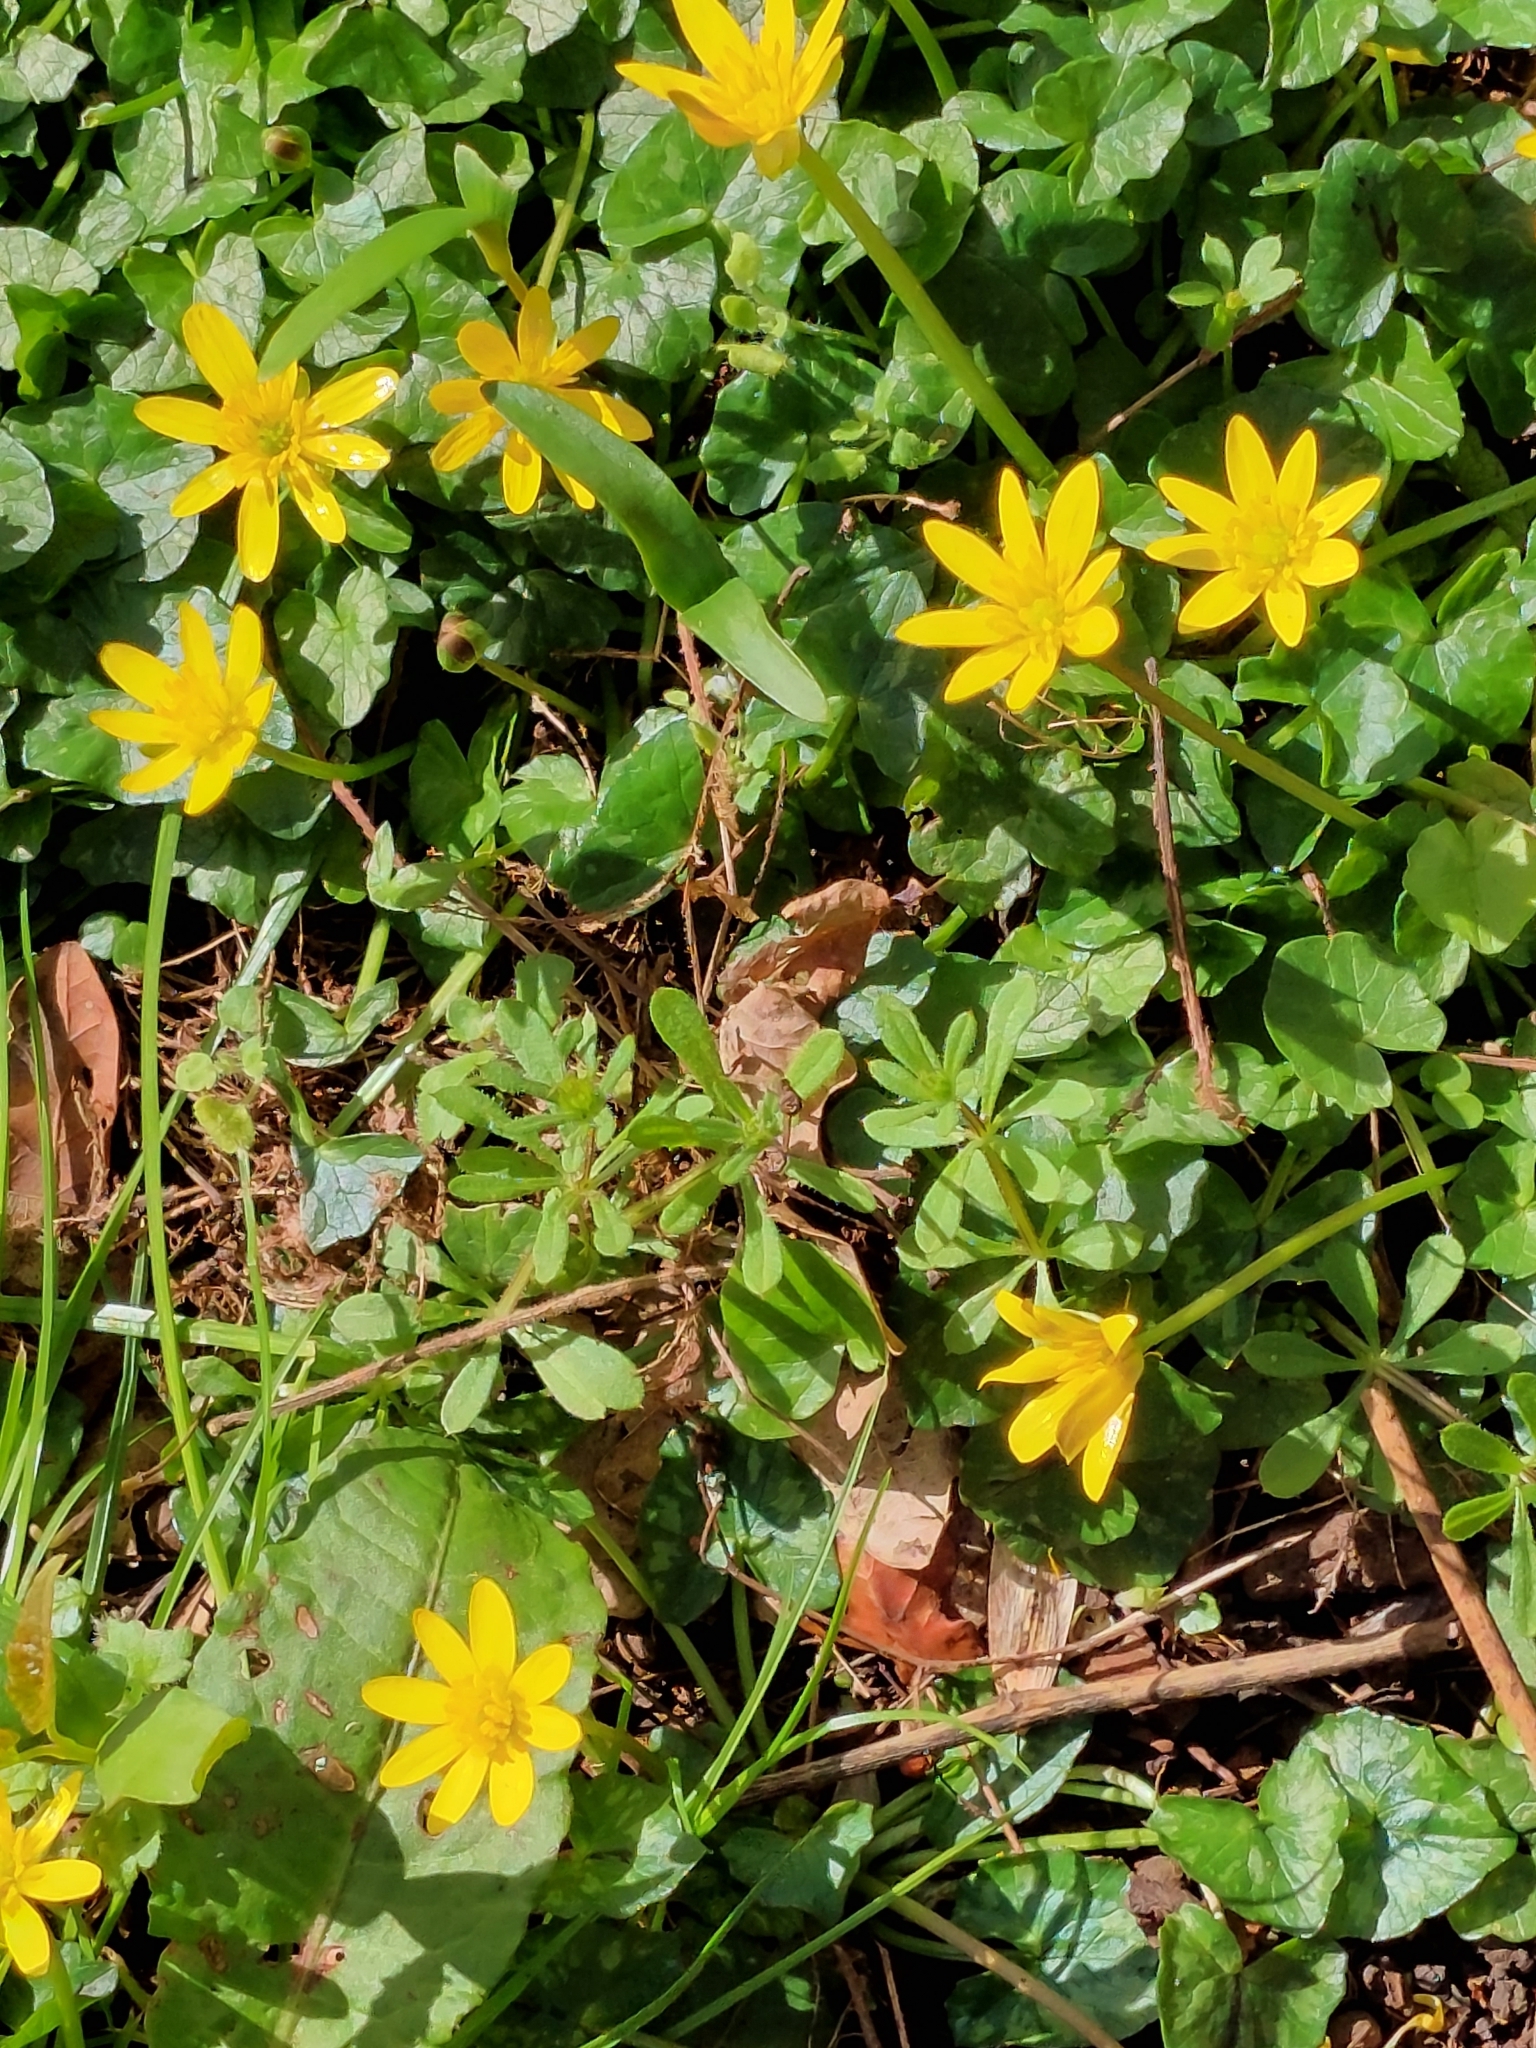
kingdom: Plantae
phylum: Tracheophyta
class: Magnoliopsida
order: Ranunculales
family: Ranunculaceae
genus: Ficaria
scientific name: Ficaria verna
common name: Lesser celandine
